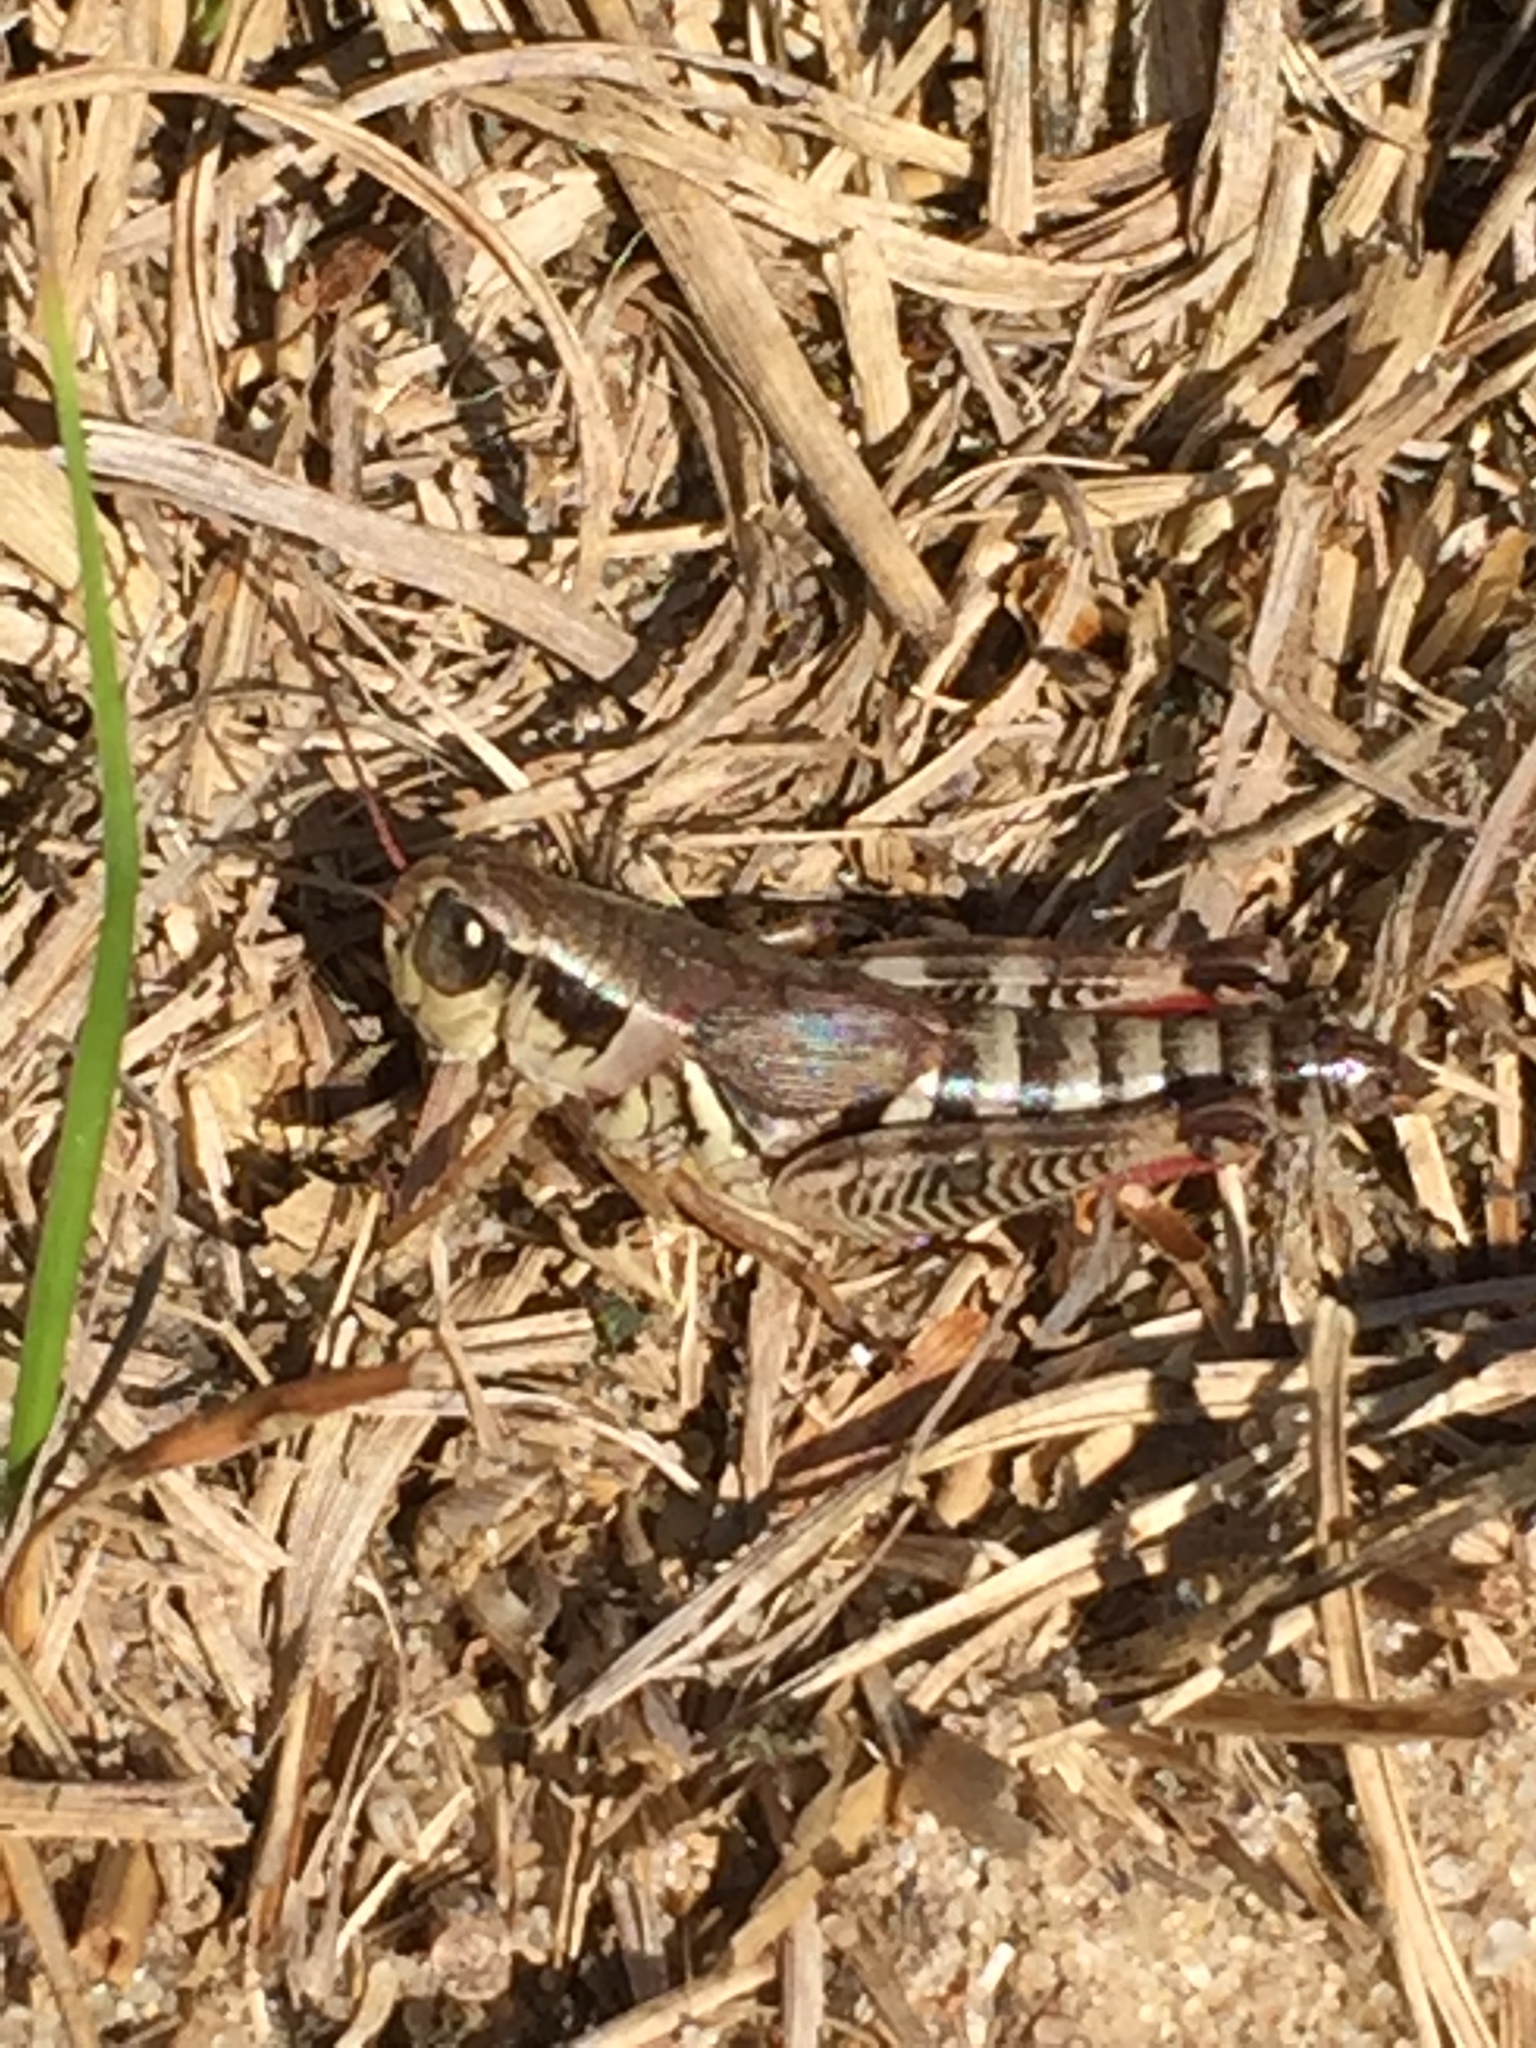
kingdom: Animalia
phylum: Arthropoda
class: Insecta
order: Orthoptera
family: Acrididae
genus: Melanoplus
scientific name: Melanoplus dawsoni
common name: Dawson grasshopper
